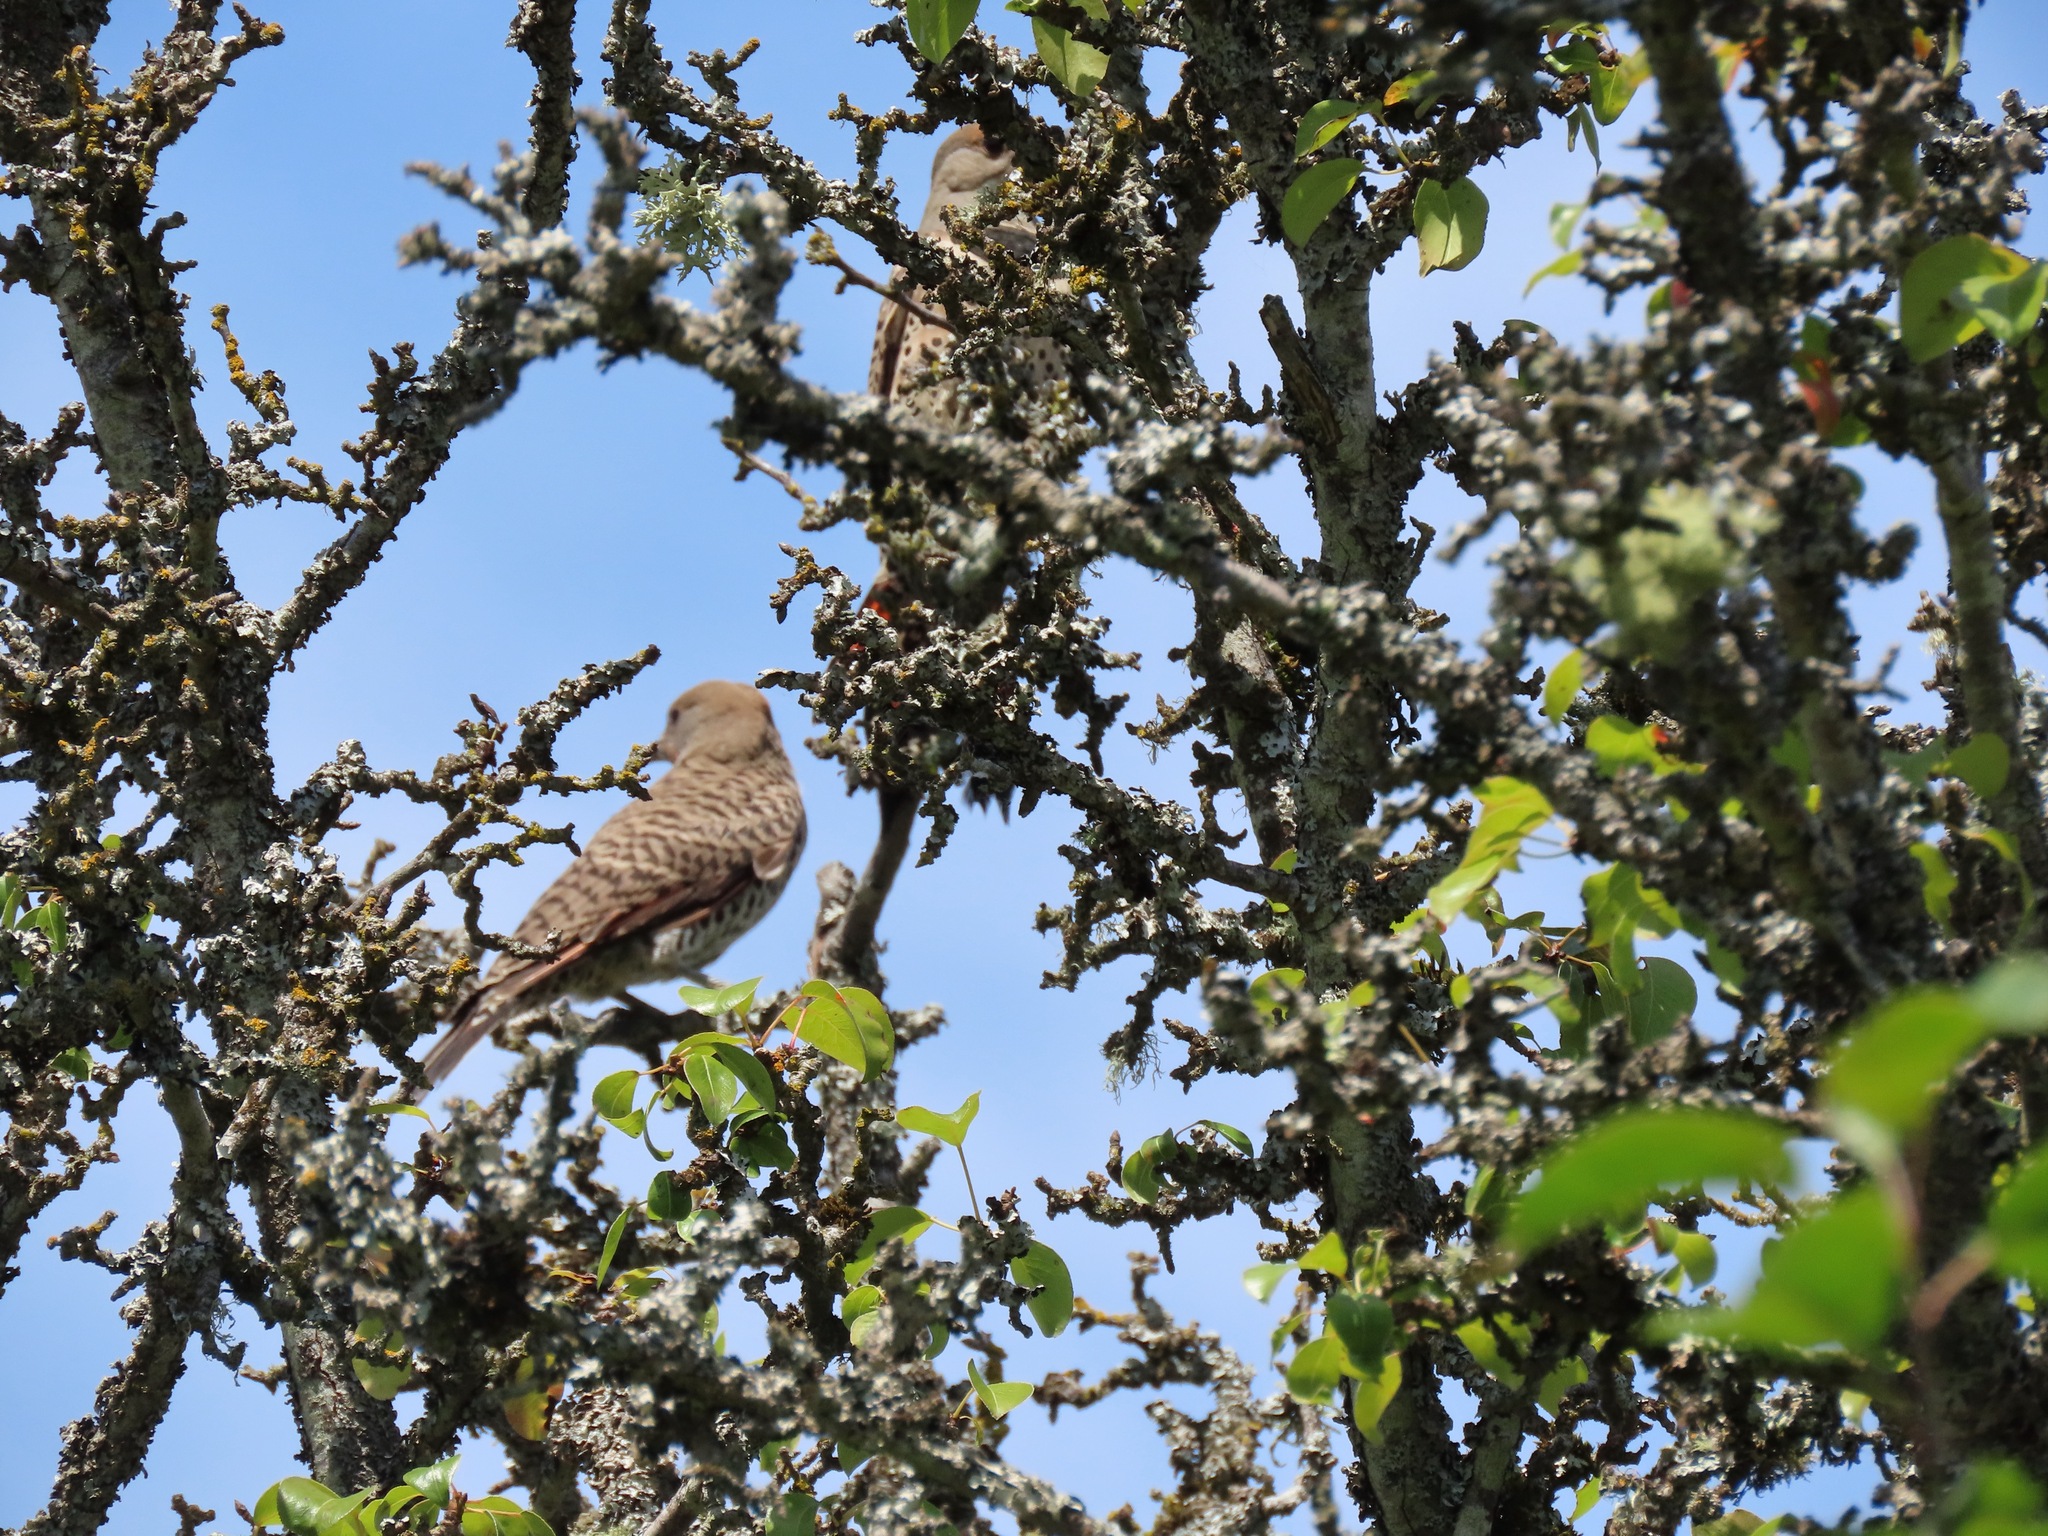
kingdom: Animalia
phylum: Chordata
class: Aves
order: Piciformes
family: Picidae
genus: Colaptes
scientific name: Colaptes auratus
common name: Northern flicker
